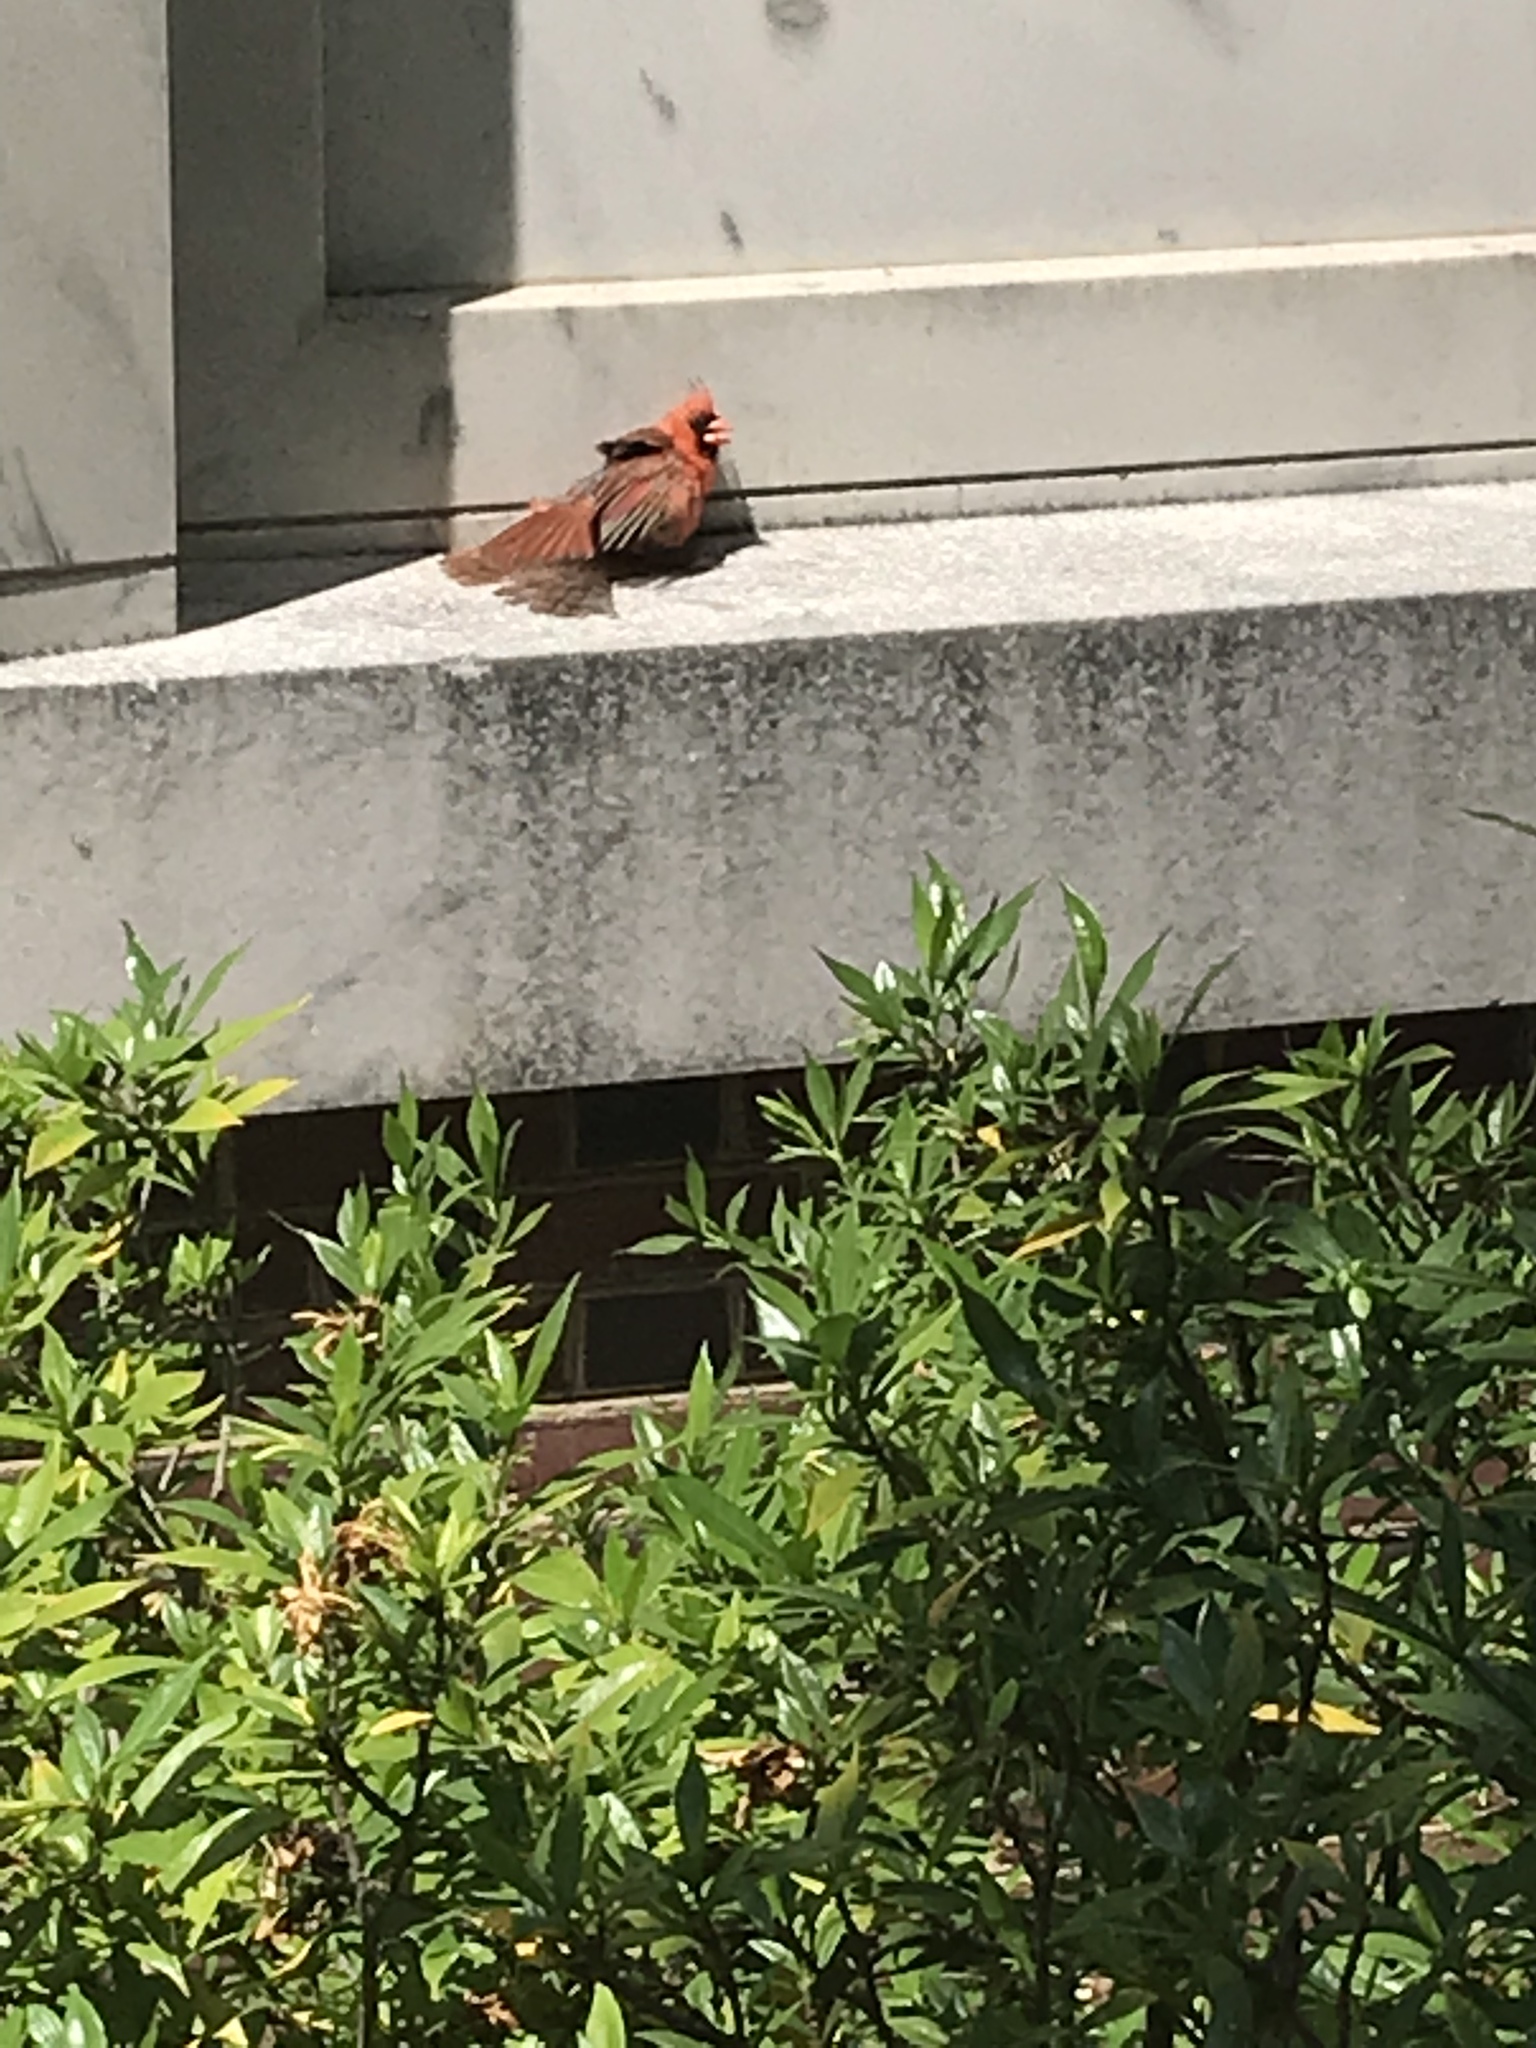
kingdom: Animalia
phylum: Chordata
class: Aves
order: Passeriformes
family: Cardinalidae
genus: Cardinalis
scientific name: Cardinalis cardinalis
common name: Northern cardinal
